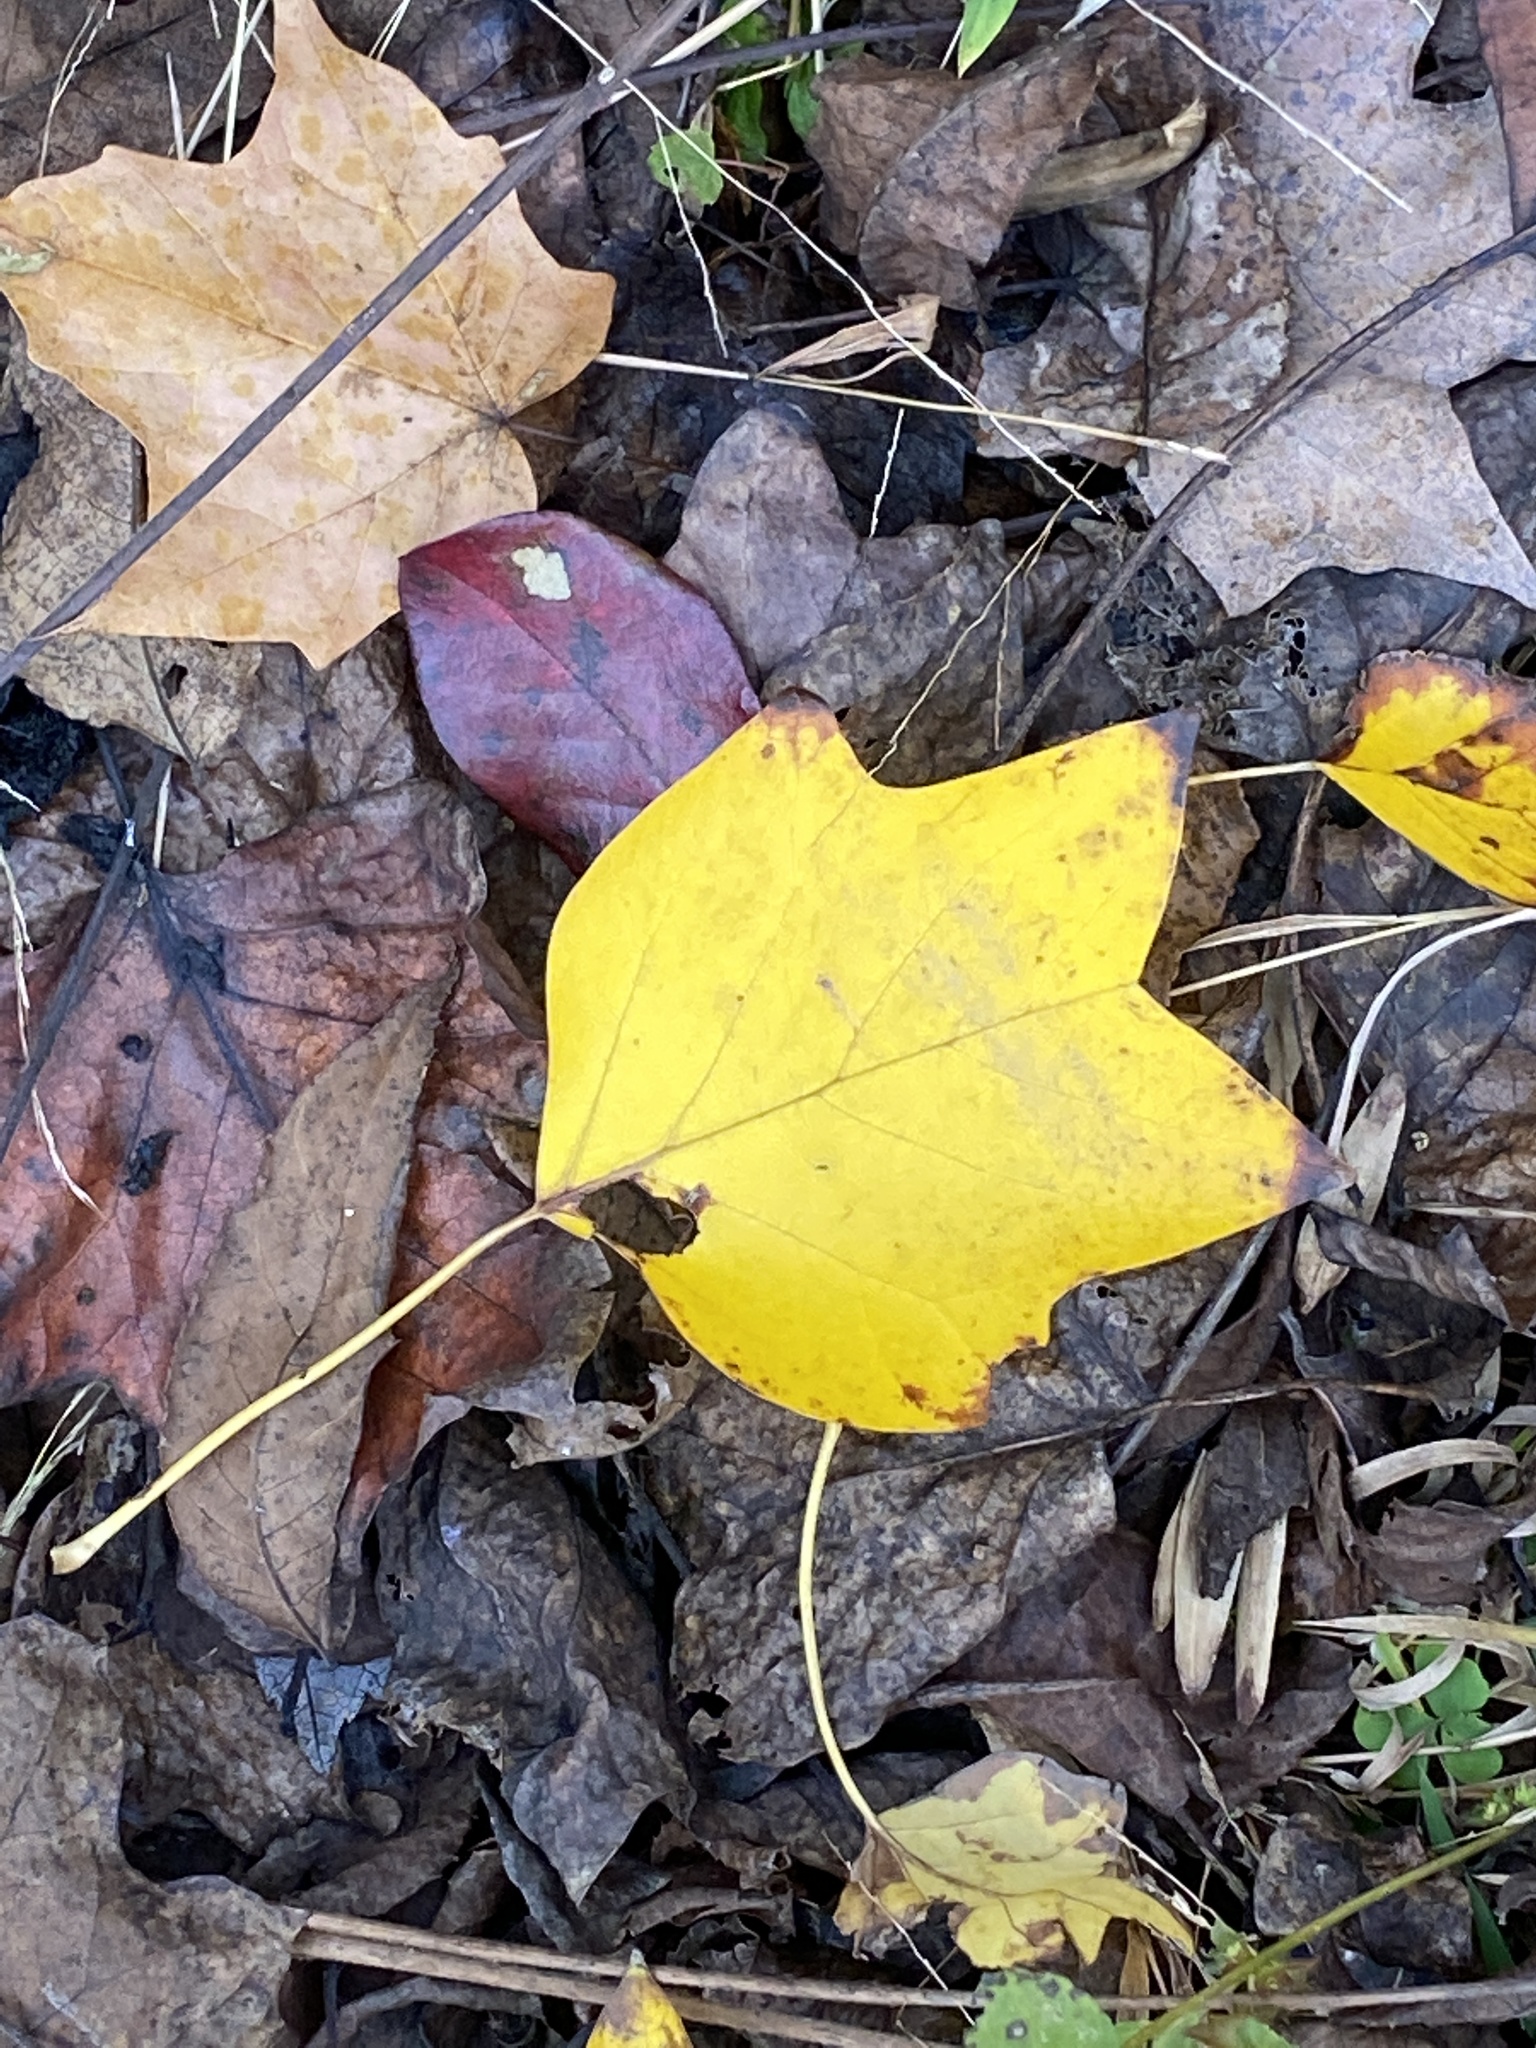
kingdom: Plantae
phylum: Tracheophyta
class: Magnoliopsida
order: Magnoliales
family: Magnoliaceae
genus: Liriodendron
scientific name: Liriodendron tulipifera
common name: Tulip tree
